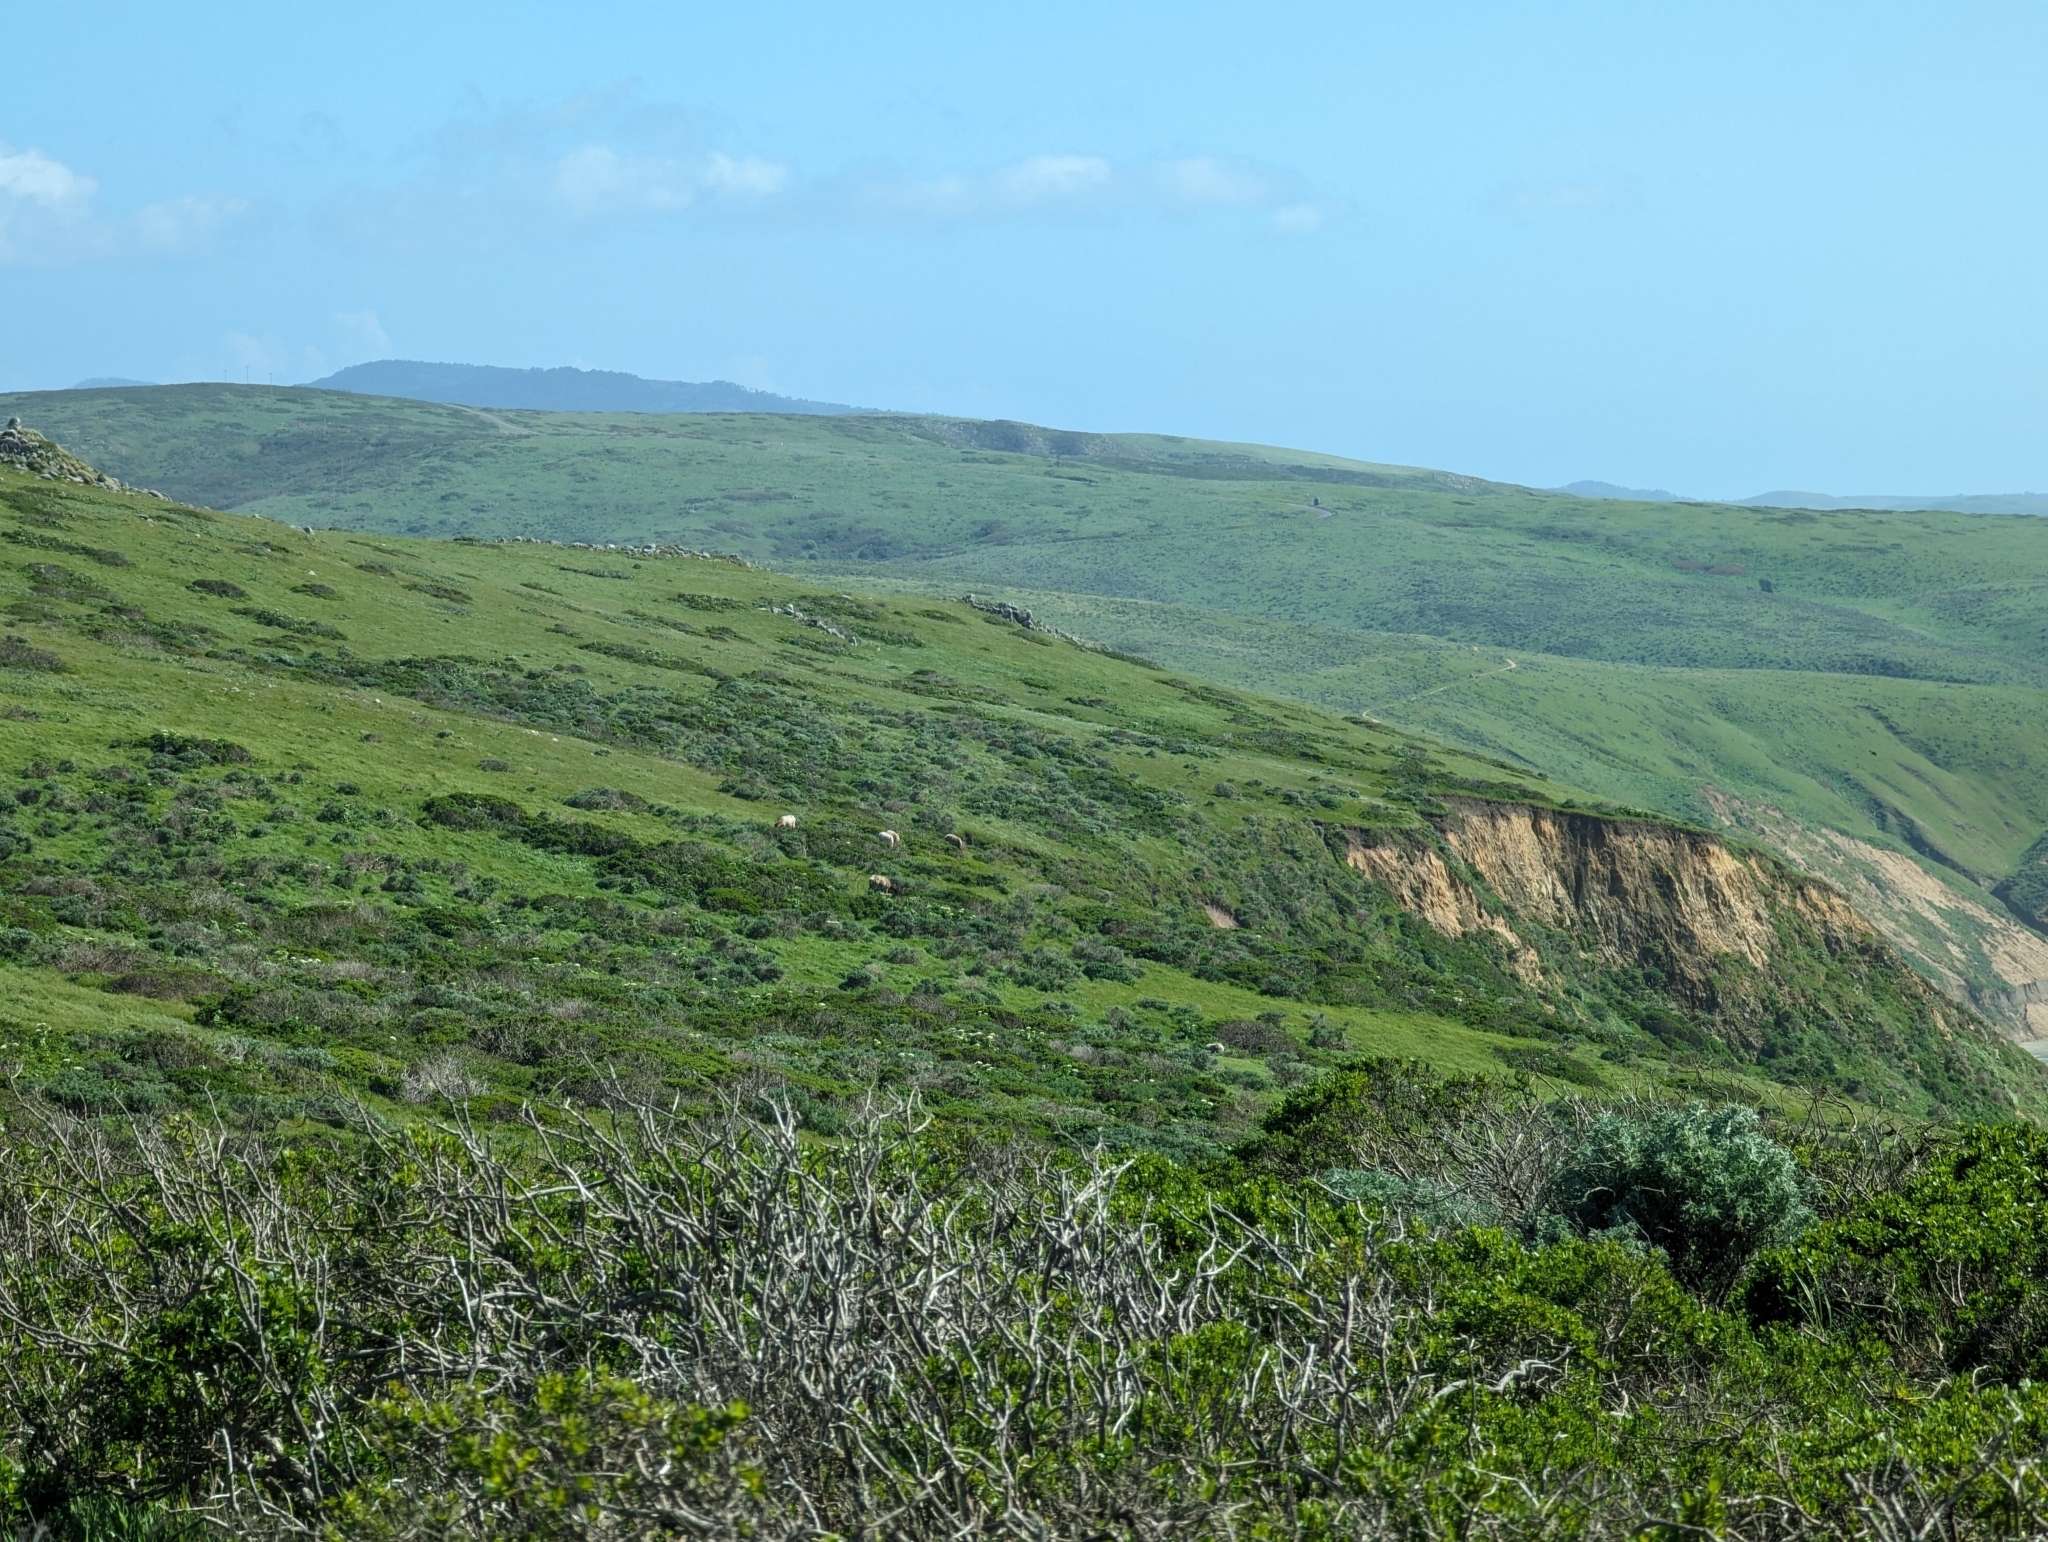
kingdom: Animalia
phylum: Chordata
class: Mammalia
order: Artiodactyla
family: Cervidae
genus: Cervus
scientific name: Cervus elaphus
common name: Red deer
